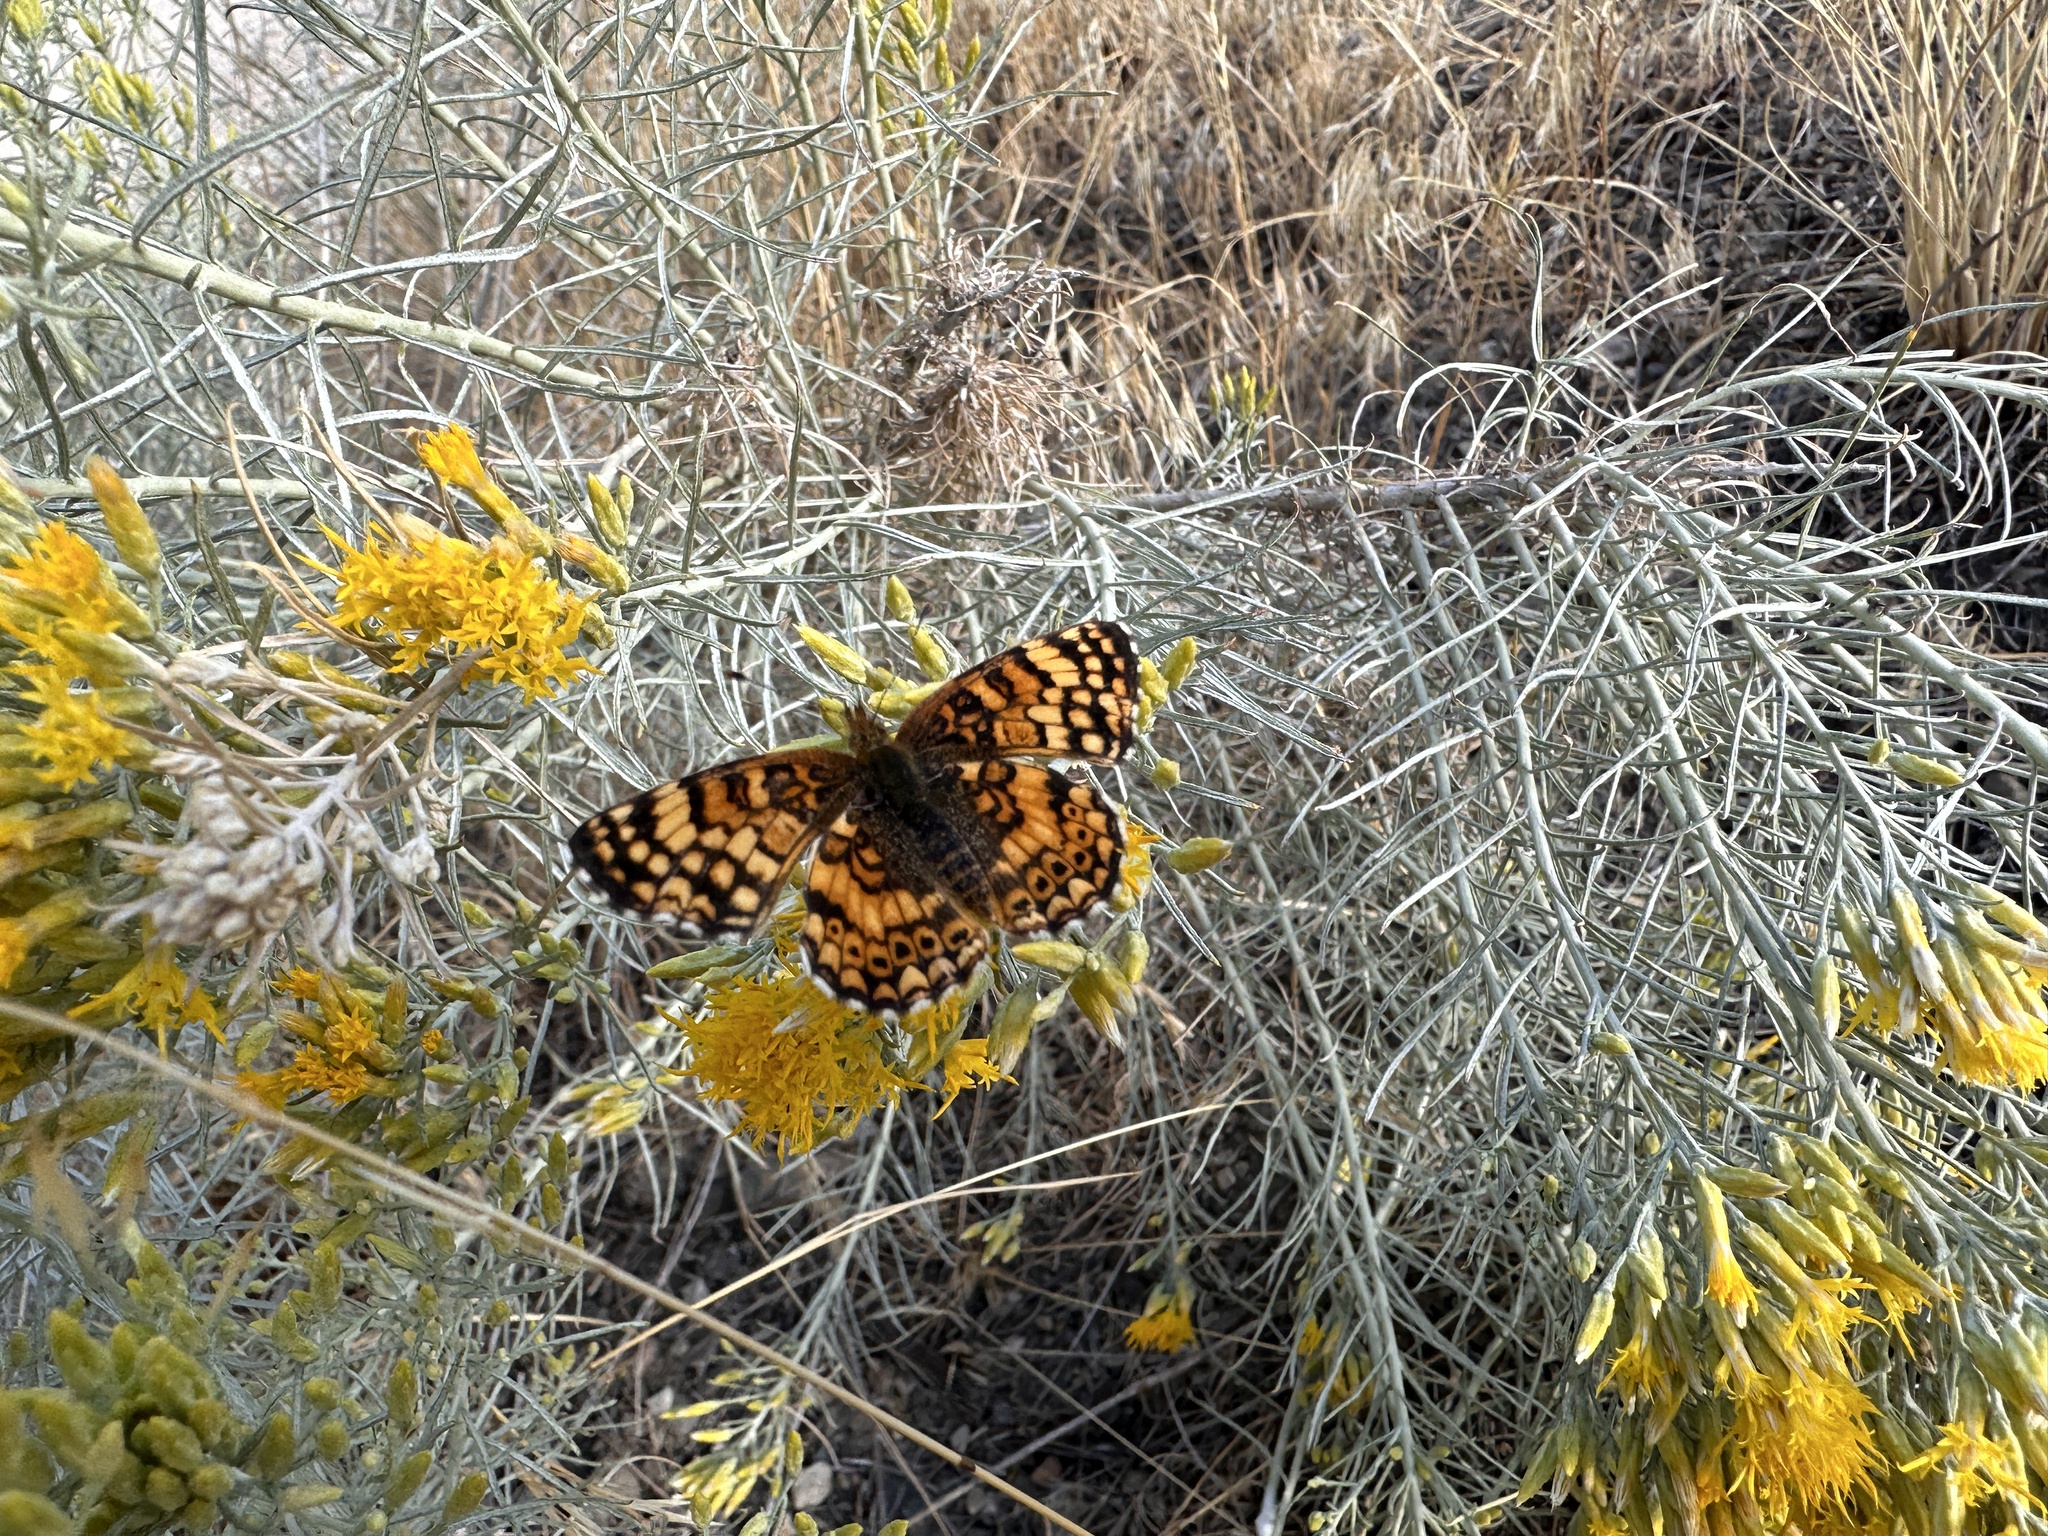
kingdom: Animalia
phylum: Arthropoda
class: Insecta
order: Lepidoptera
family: Nymphalidae
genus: Eresia
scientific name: Eresia aveyrona
